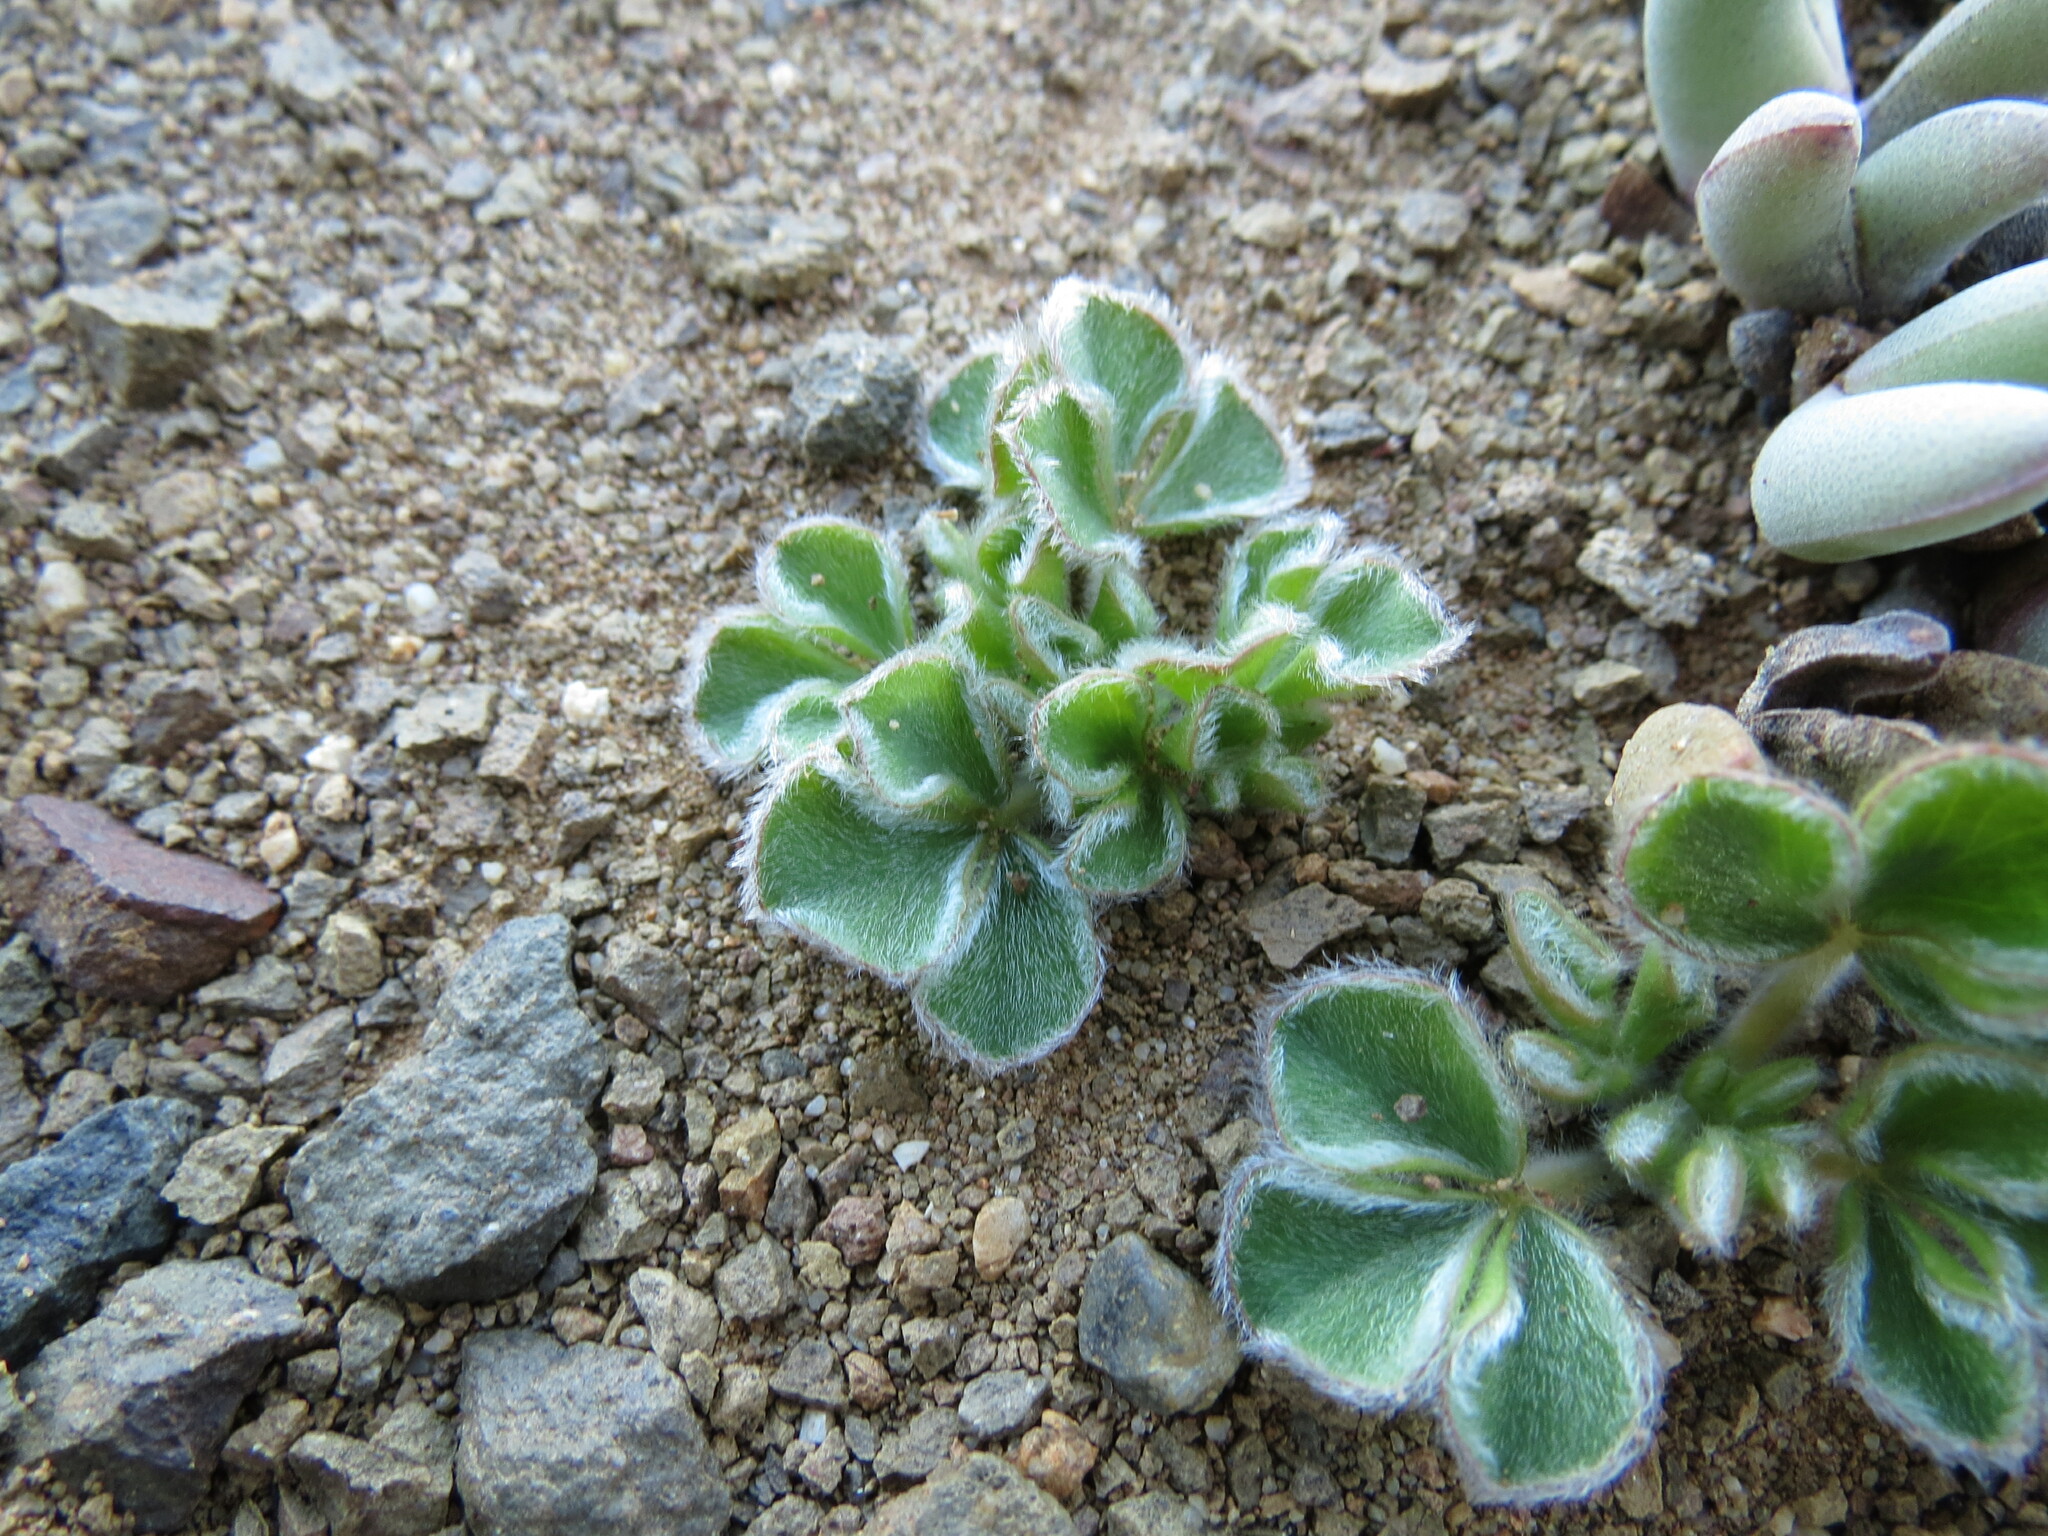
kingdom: Plantae
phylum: Tracheophyta
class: Magnoliopsida
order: Oxalidales
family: Oxalidaceae
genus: Oxalis
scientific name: Oxalis melanosticta
